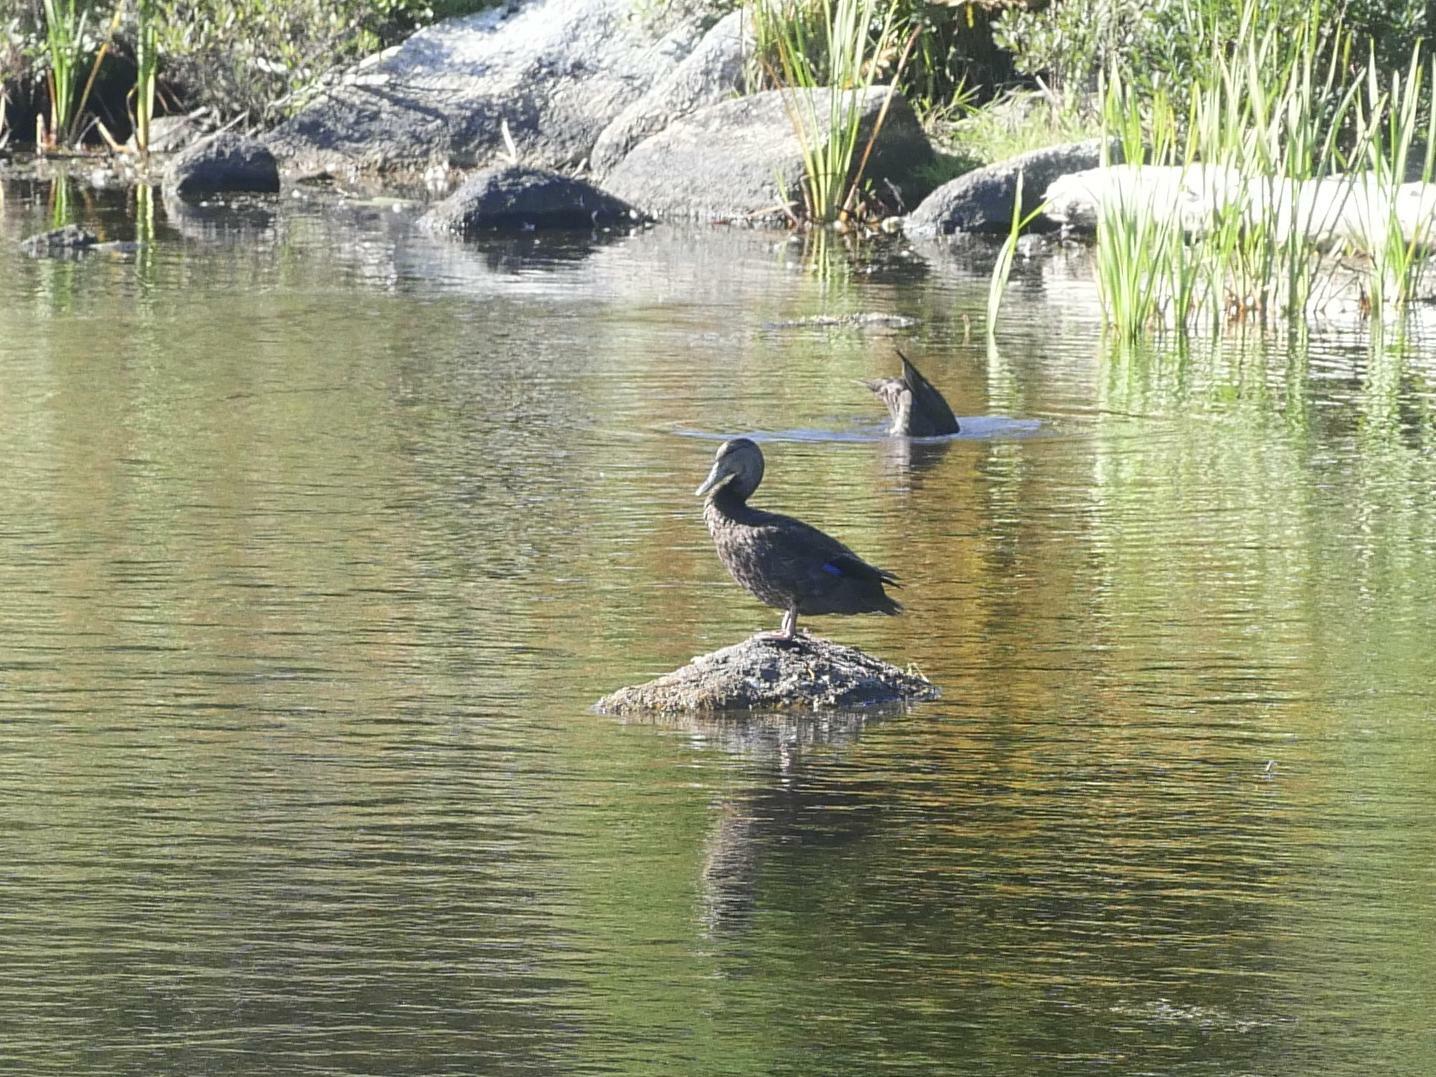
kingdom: Animalia
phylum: Chordata
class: Aves
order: Anseriformes
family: Anatidae
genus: Anas
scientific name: Anas rubripes
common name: American black duck
